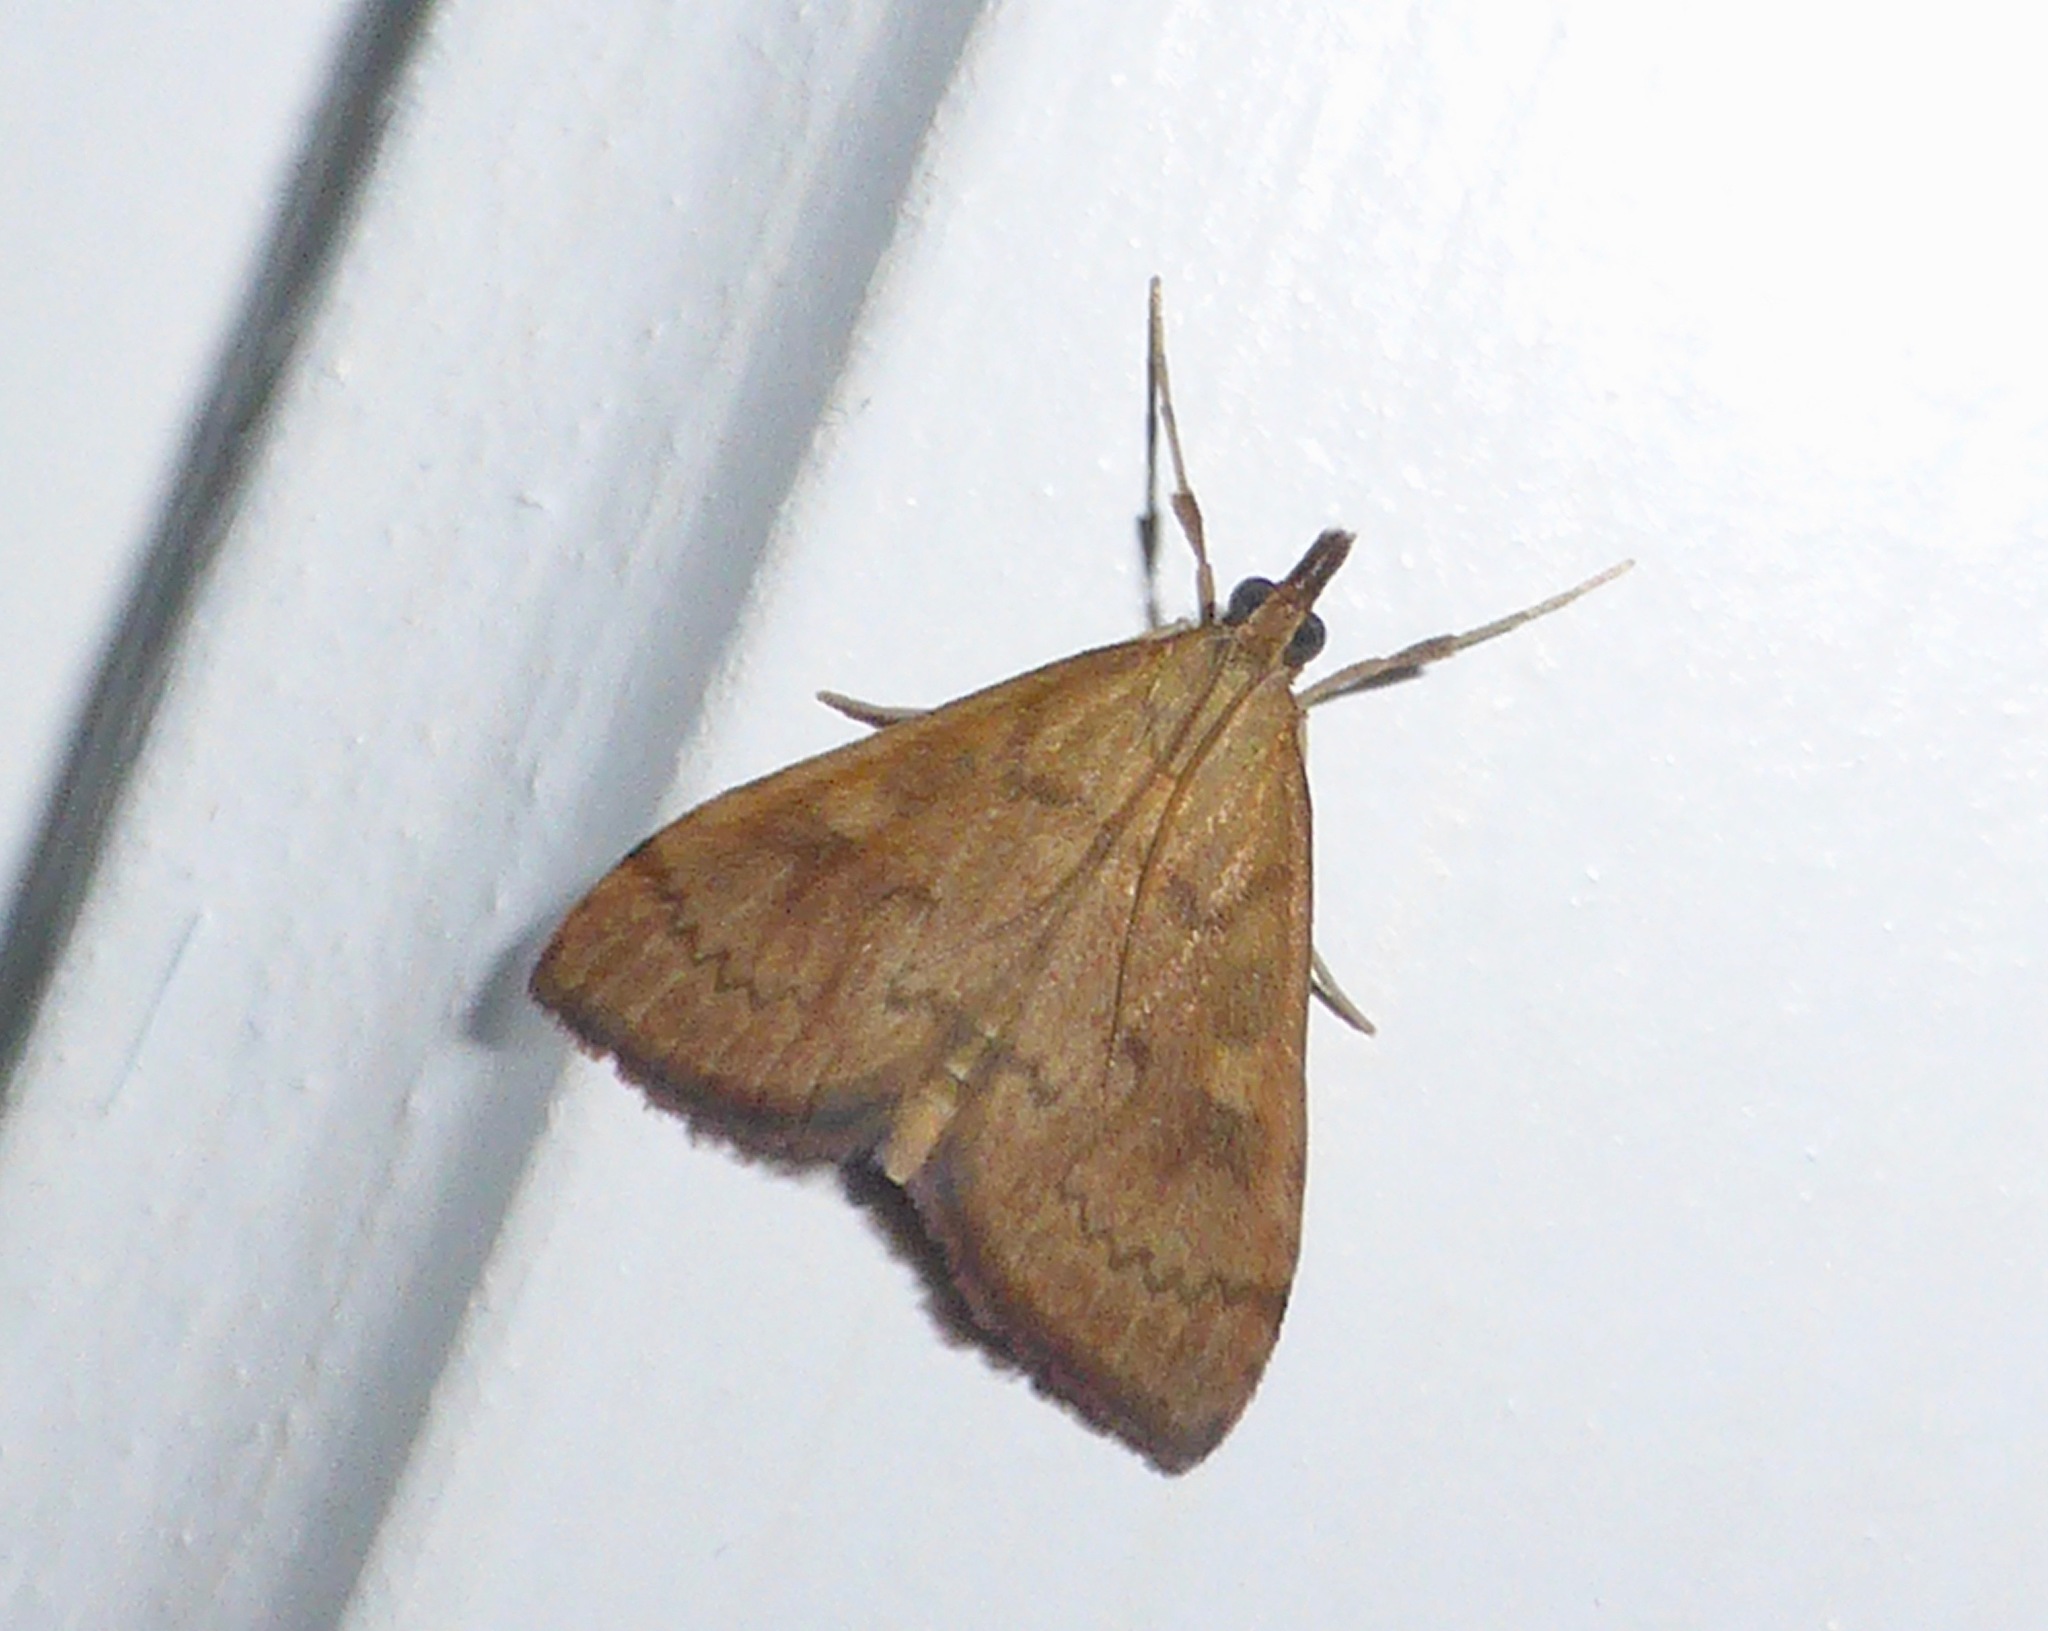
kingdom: Animalia
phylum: Arthropoda
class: Insecta
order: Lepidoptera
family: Crambidae
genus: Udea
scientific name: Udea Mnesictena flavidalis
